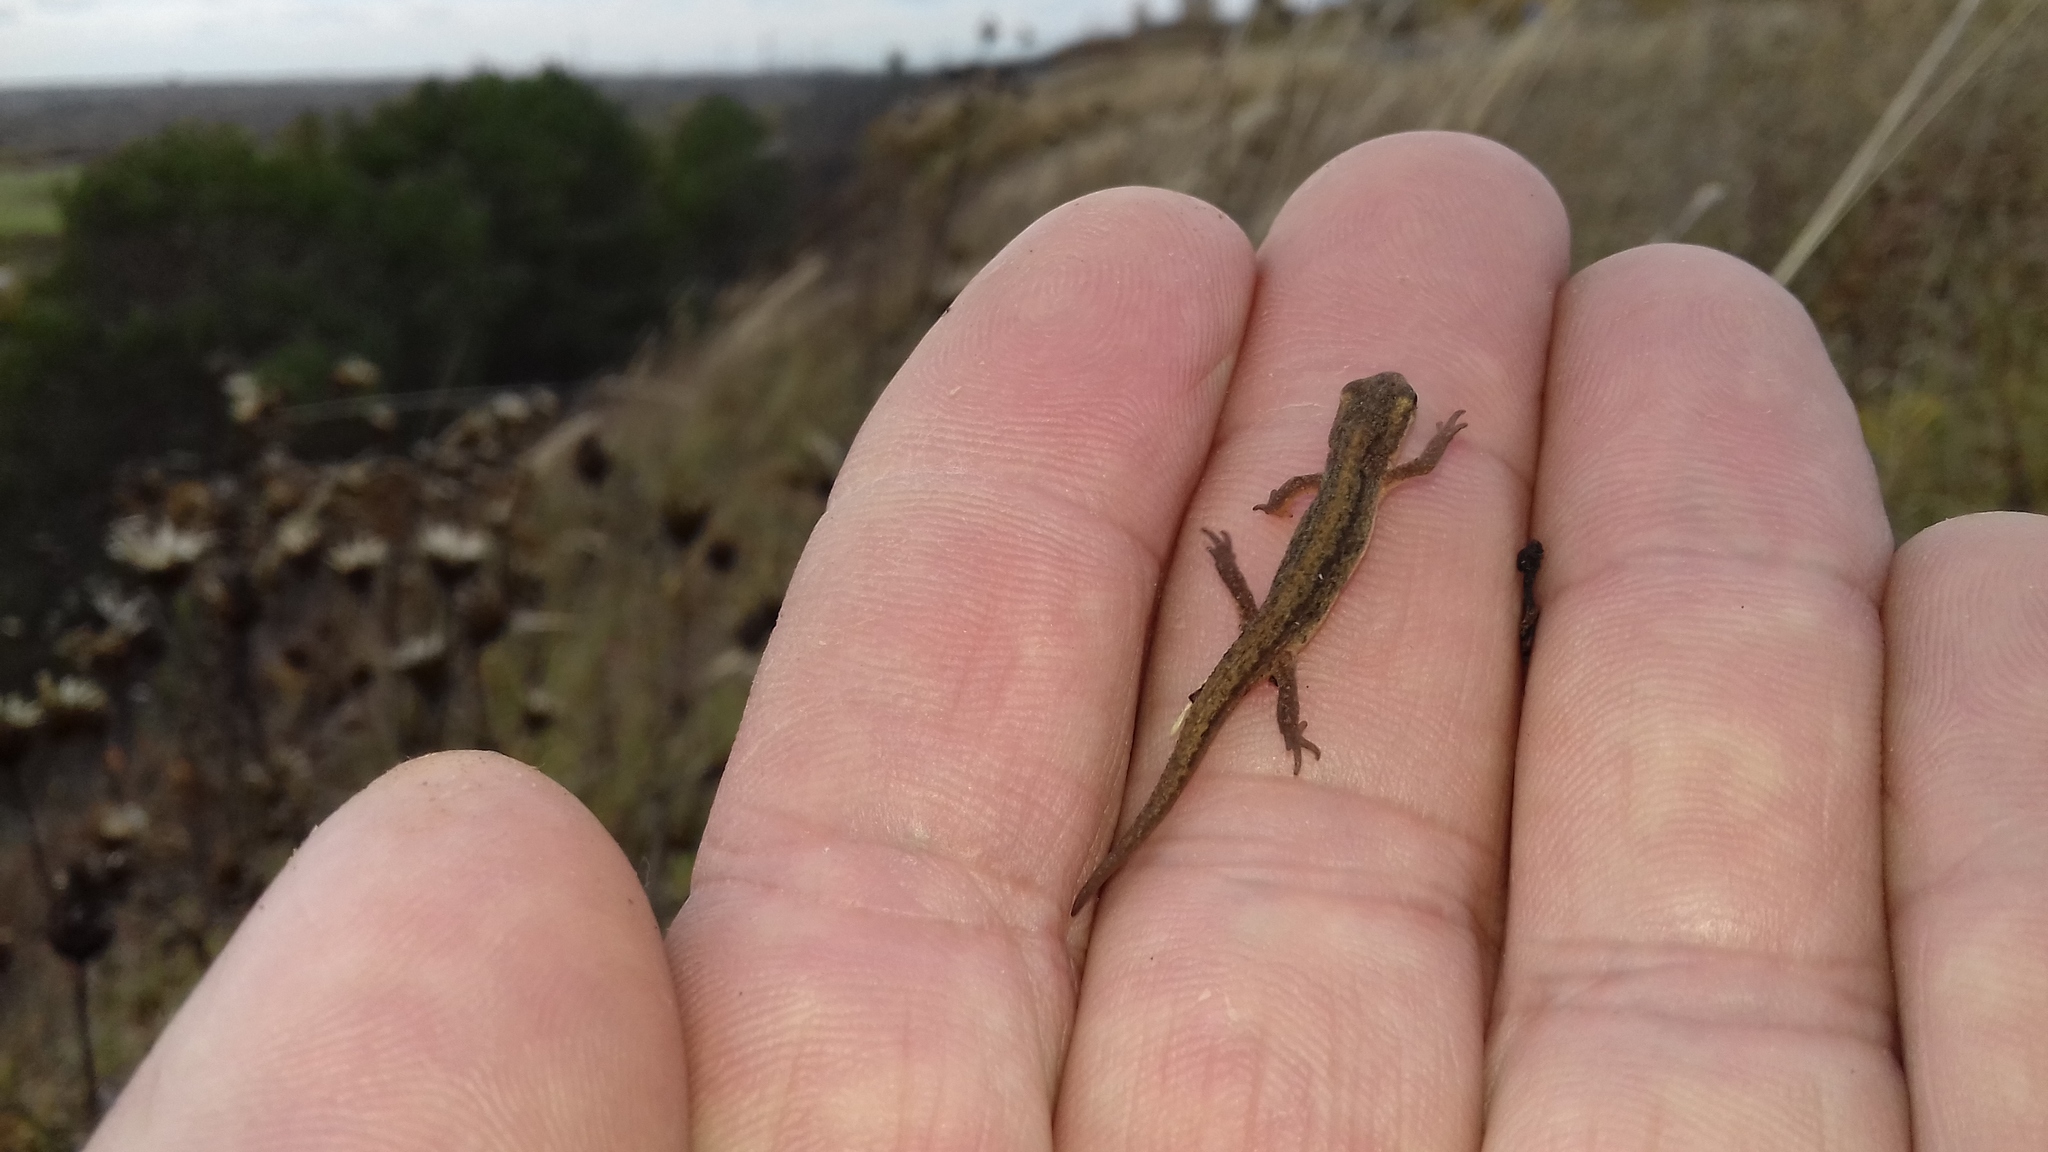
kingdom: Animalia
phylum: Chordata
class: Amphibia
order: Caudata
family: Salamandridae
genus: Lissotriton
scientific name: Lissotriton vulgaris
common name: Smooth newt
